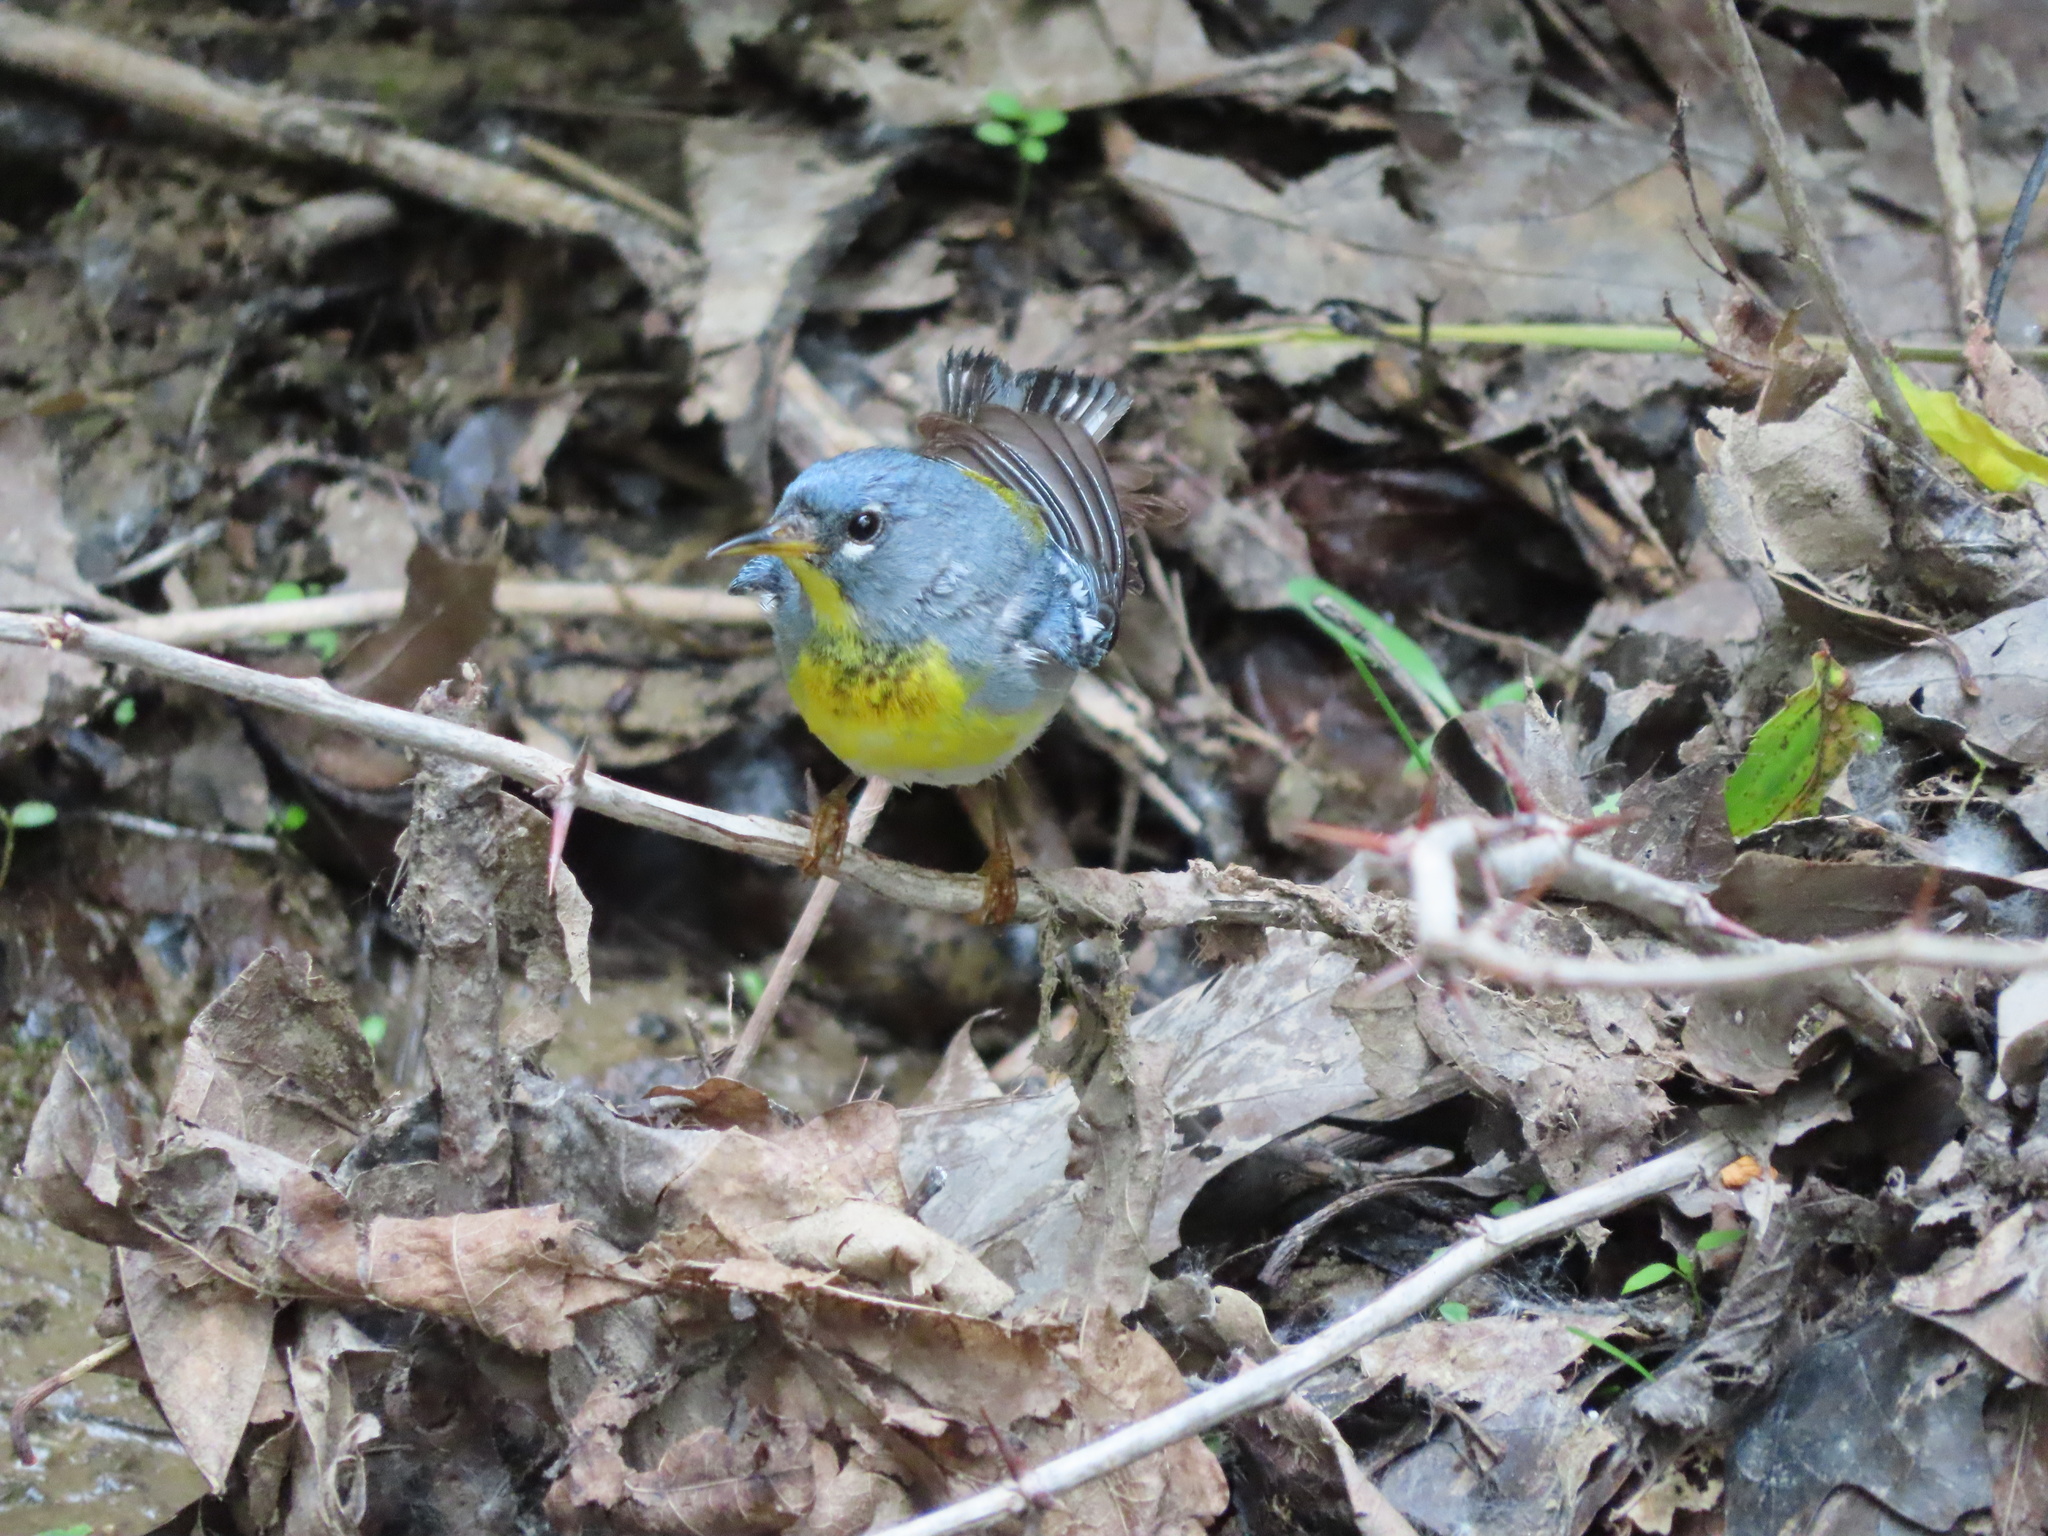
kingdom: Animalia
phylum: Chordata
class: Aves
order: Passeriformes
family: Parulidae
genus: Setophaga
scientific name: Setophaga americana
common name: Northern parula
